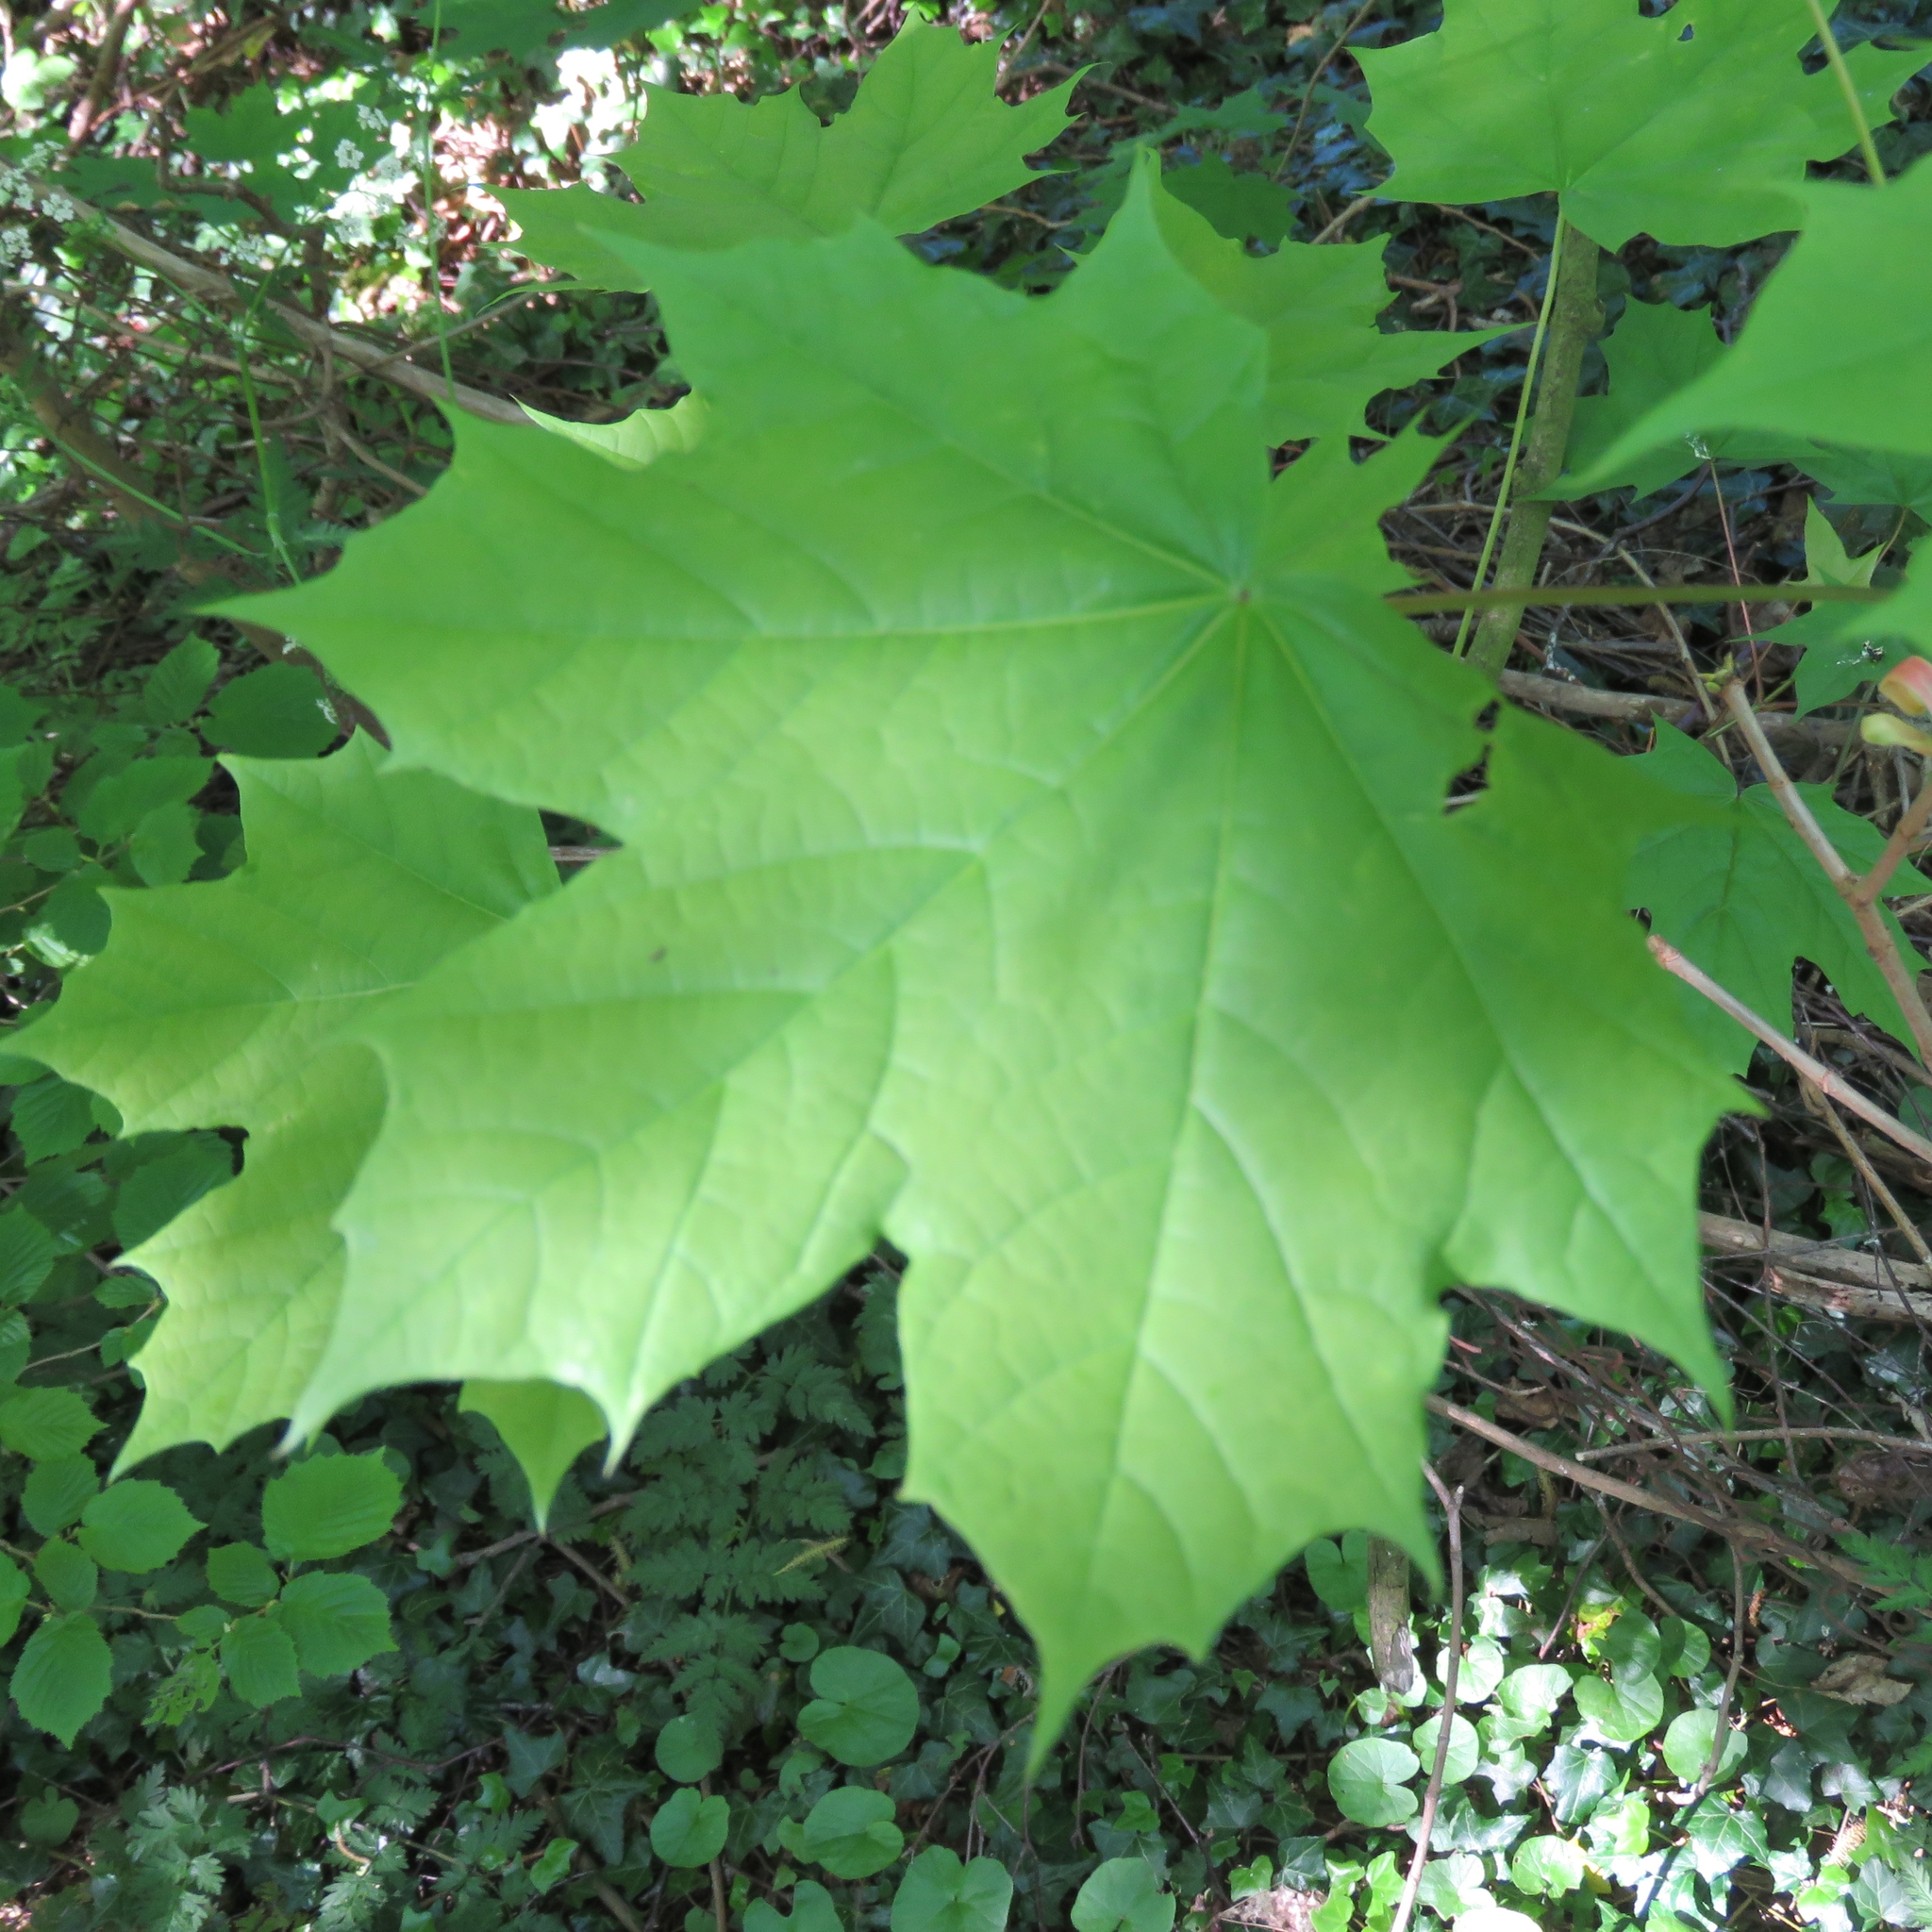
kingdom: Plantae
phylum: Tracheophyta
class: Magnoliopsida
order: Sapindales
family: Sapindaceae
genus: Acer
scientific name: Acer platanoides
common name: Norway maple
